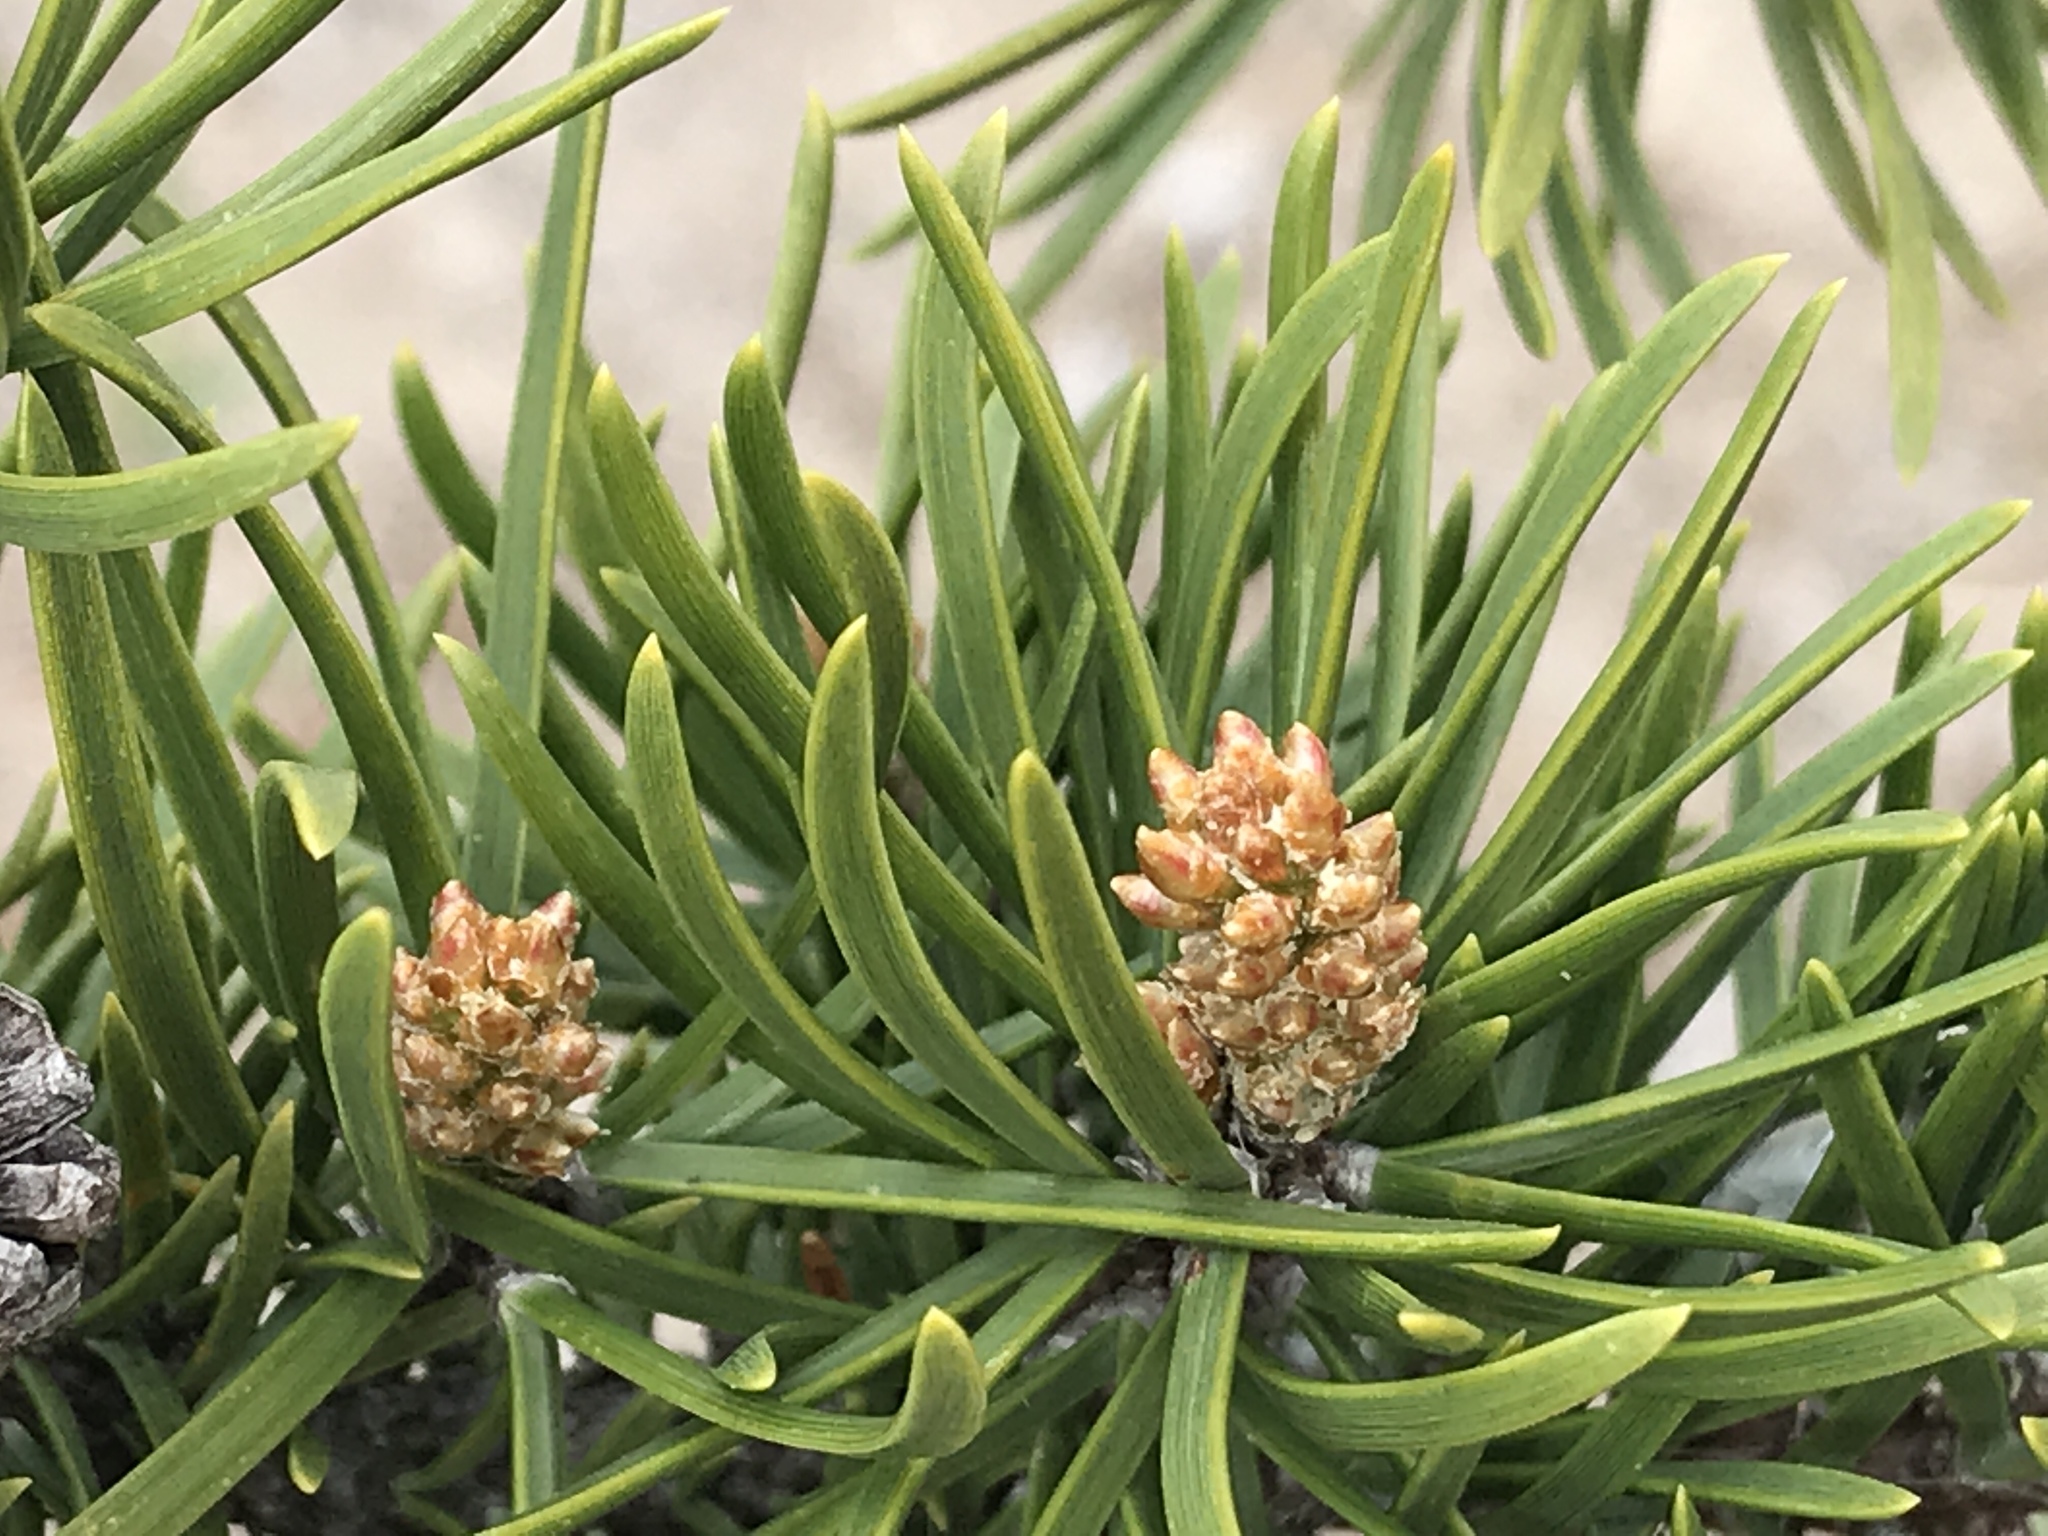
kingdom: Plantae
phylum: Tracheophyta
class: Pinopsida
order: Pinales
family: Pinaceae
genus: Pinus
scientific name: Pinus banksiana
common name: Jack pine
